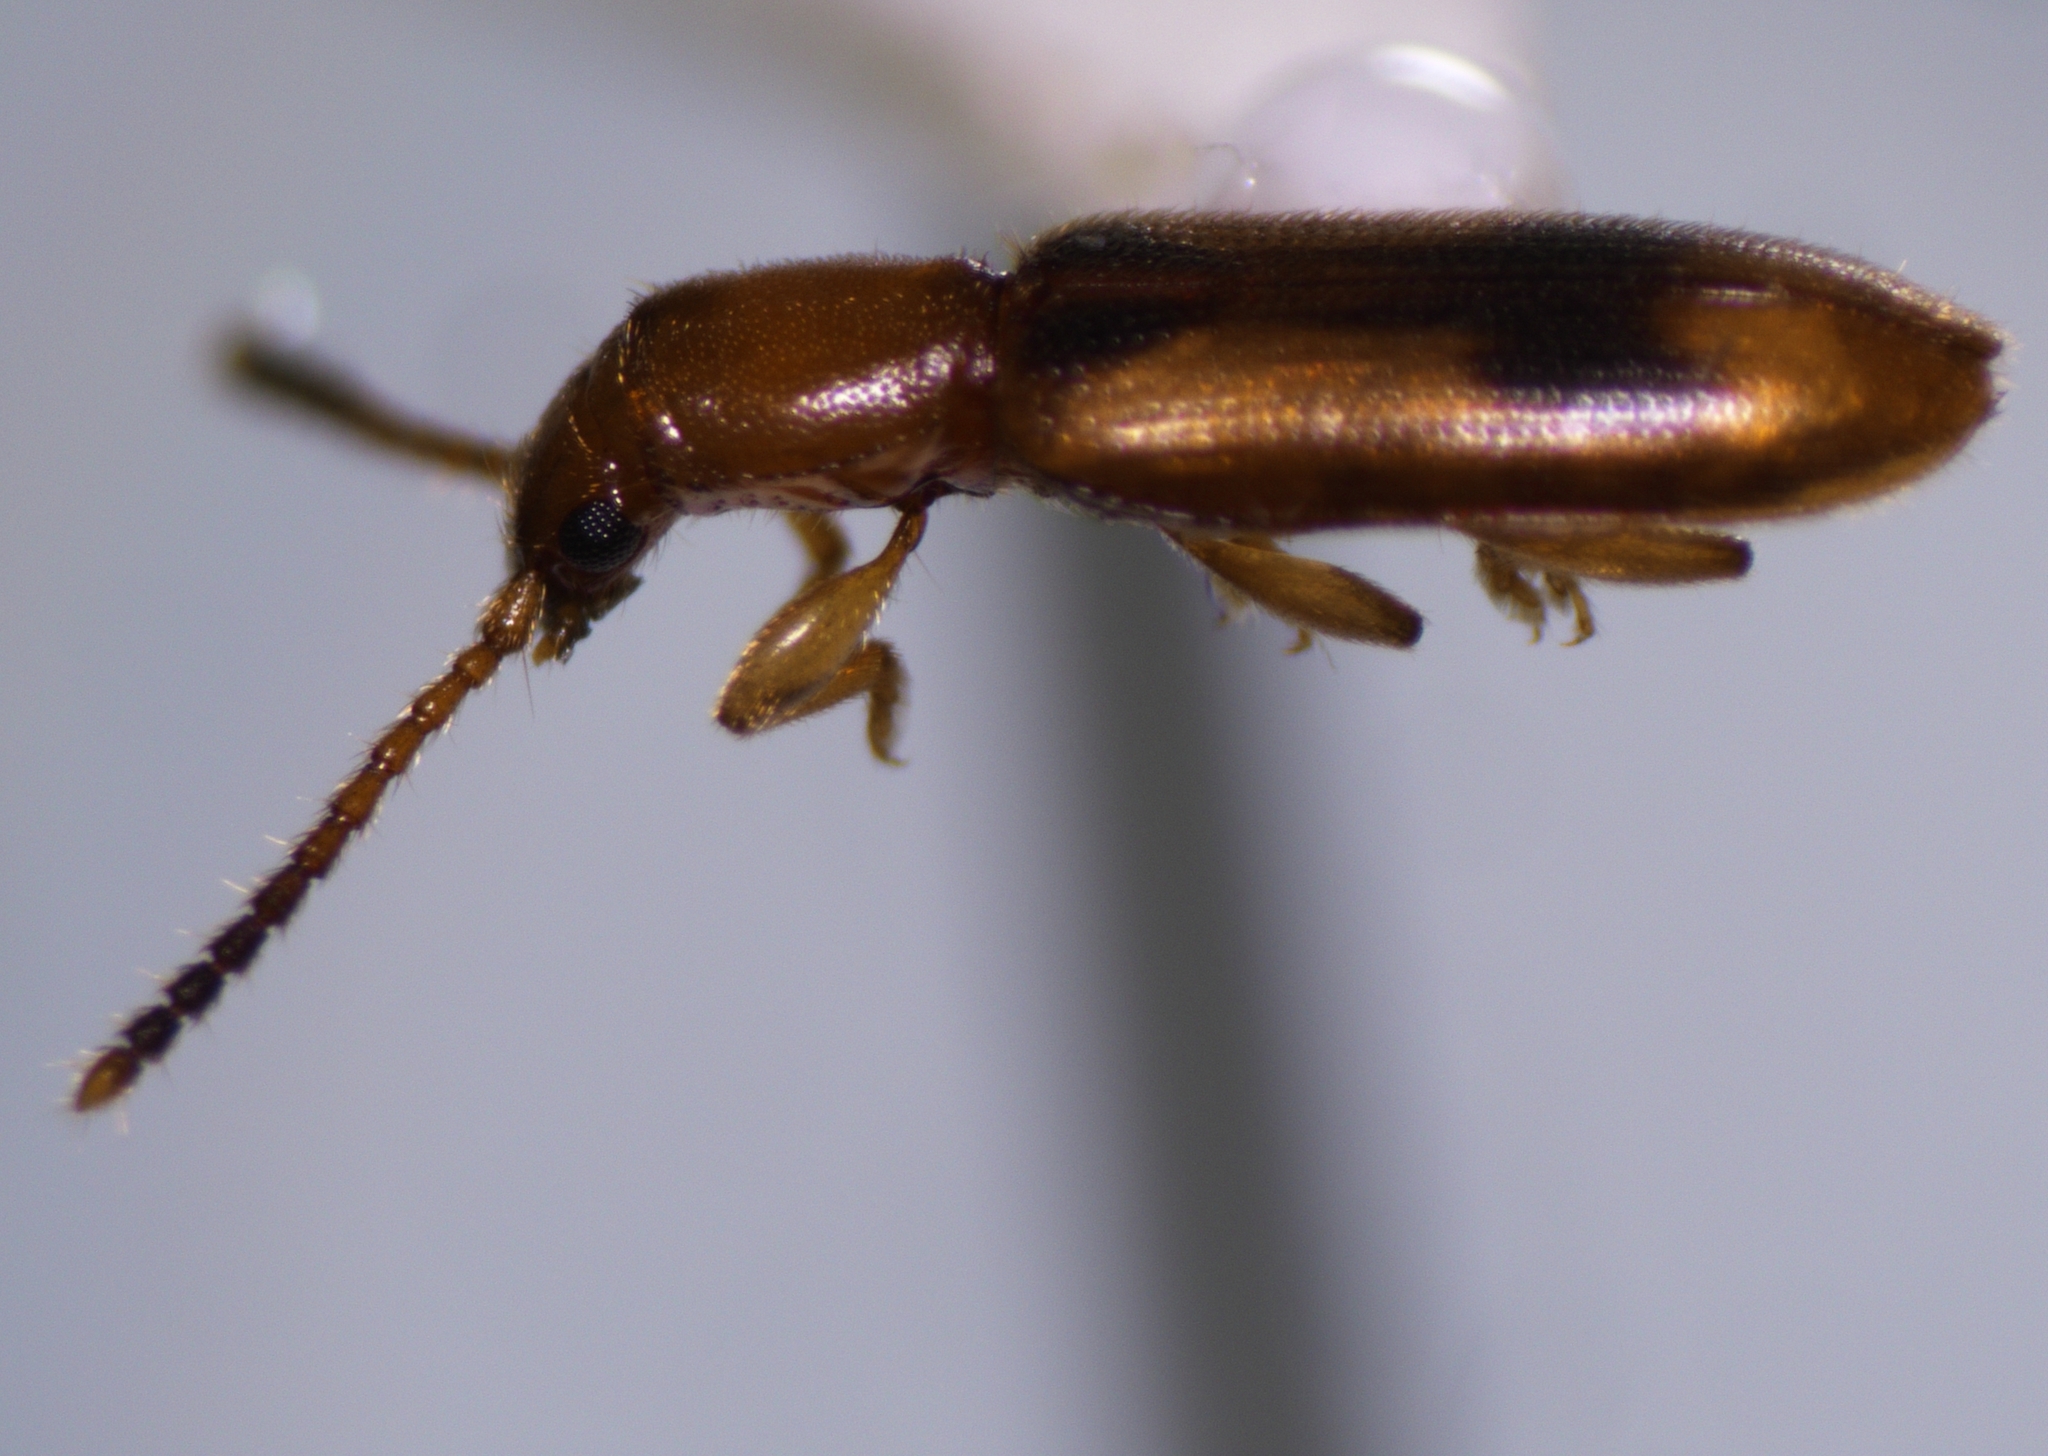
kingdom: Animalia
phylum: Arthropoda
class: Insecta
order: Coleoptera
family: Silvanidae
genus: Cryptamorpha
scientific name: Cryptamorpha desjardinsi
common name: Cryptamorpha
